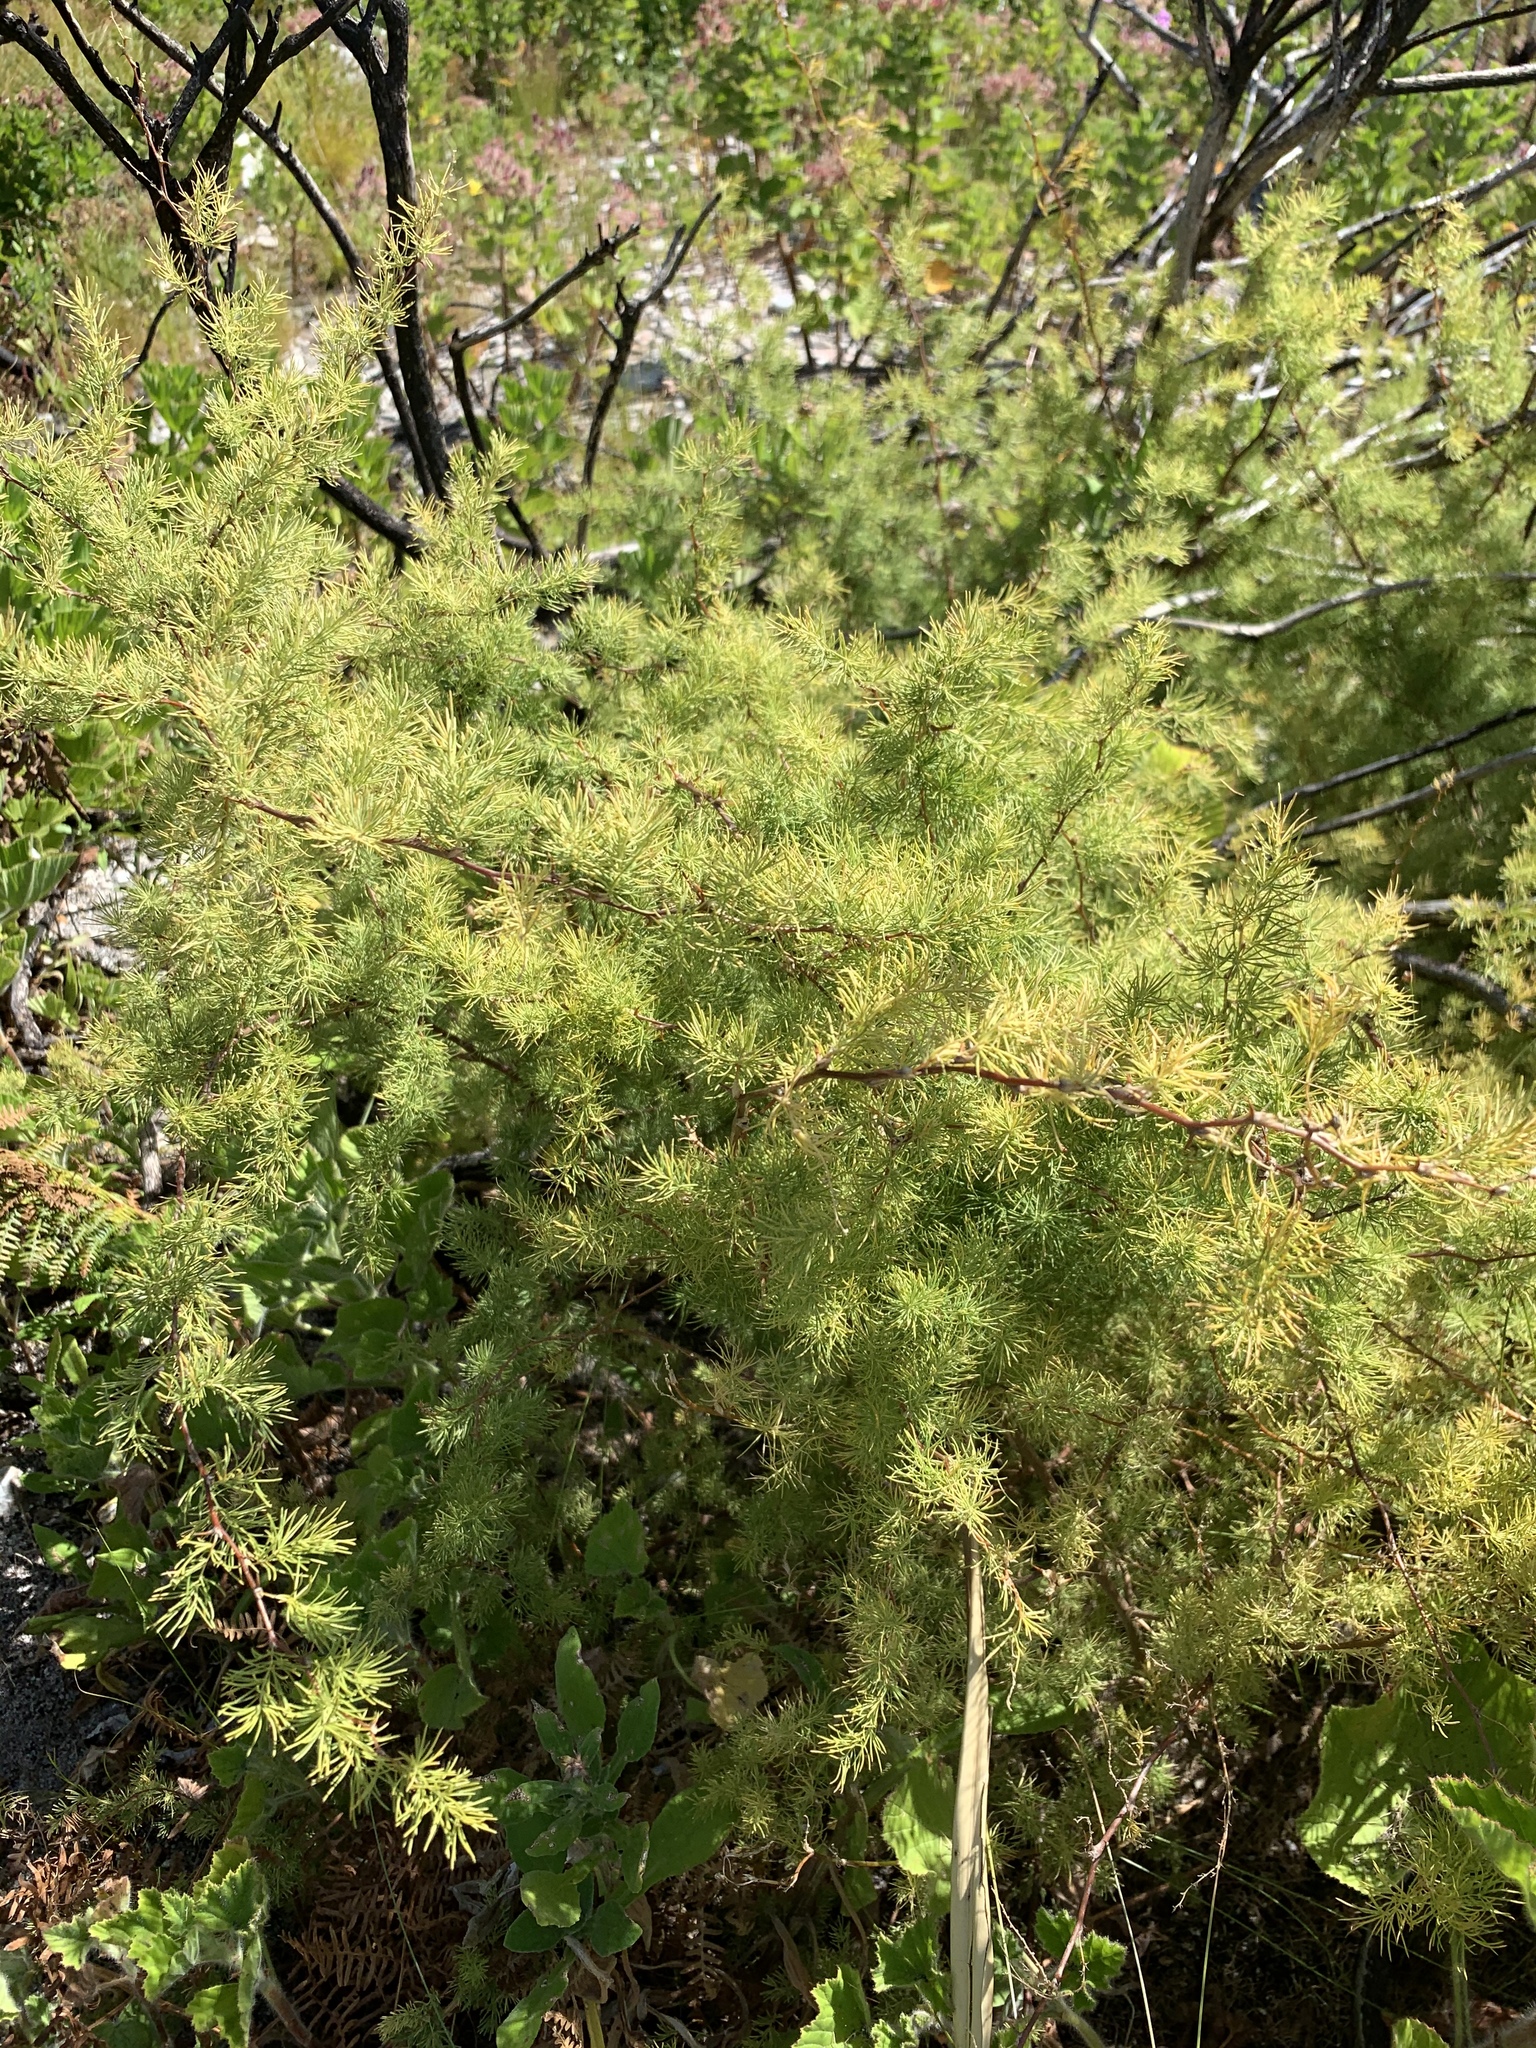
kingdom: Plantae
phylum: Tracheophyta
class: Liliopsida
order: Asparagales
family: Asparagaceae
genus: Asparagus
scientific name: Asparagus rubicundus
